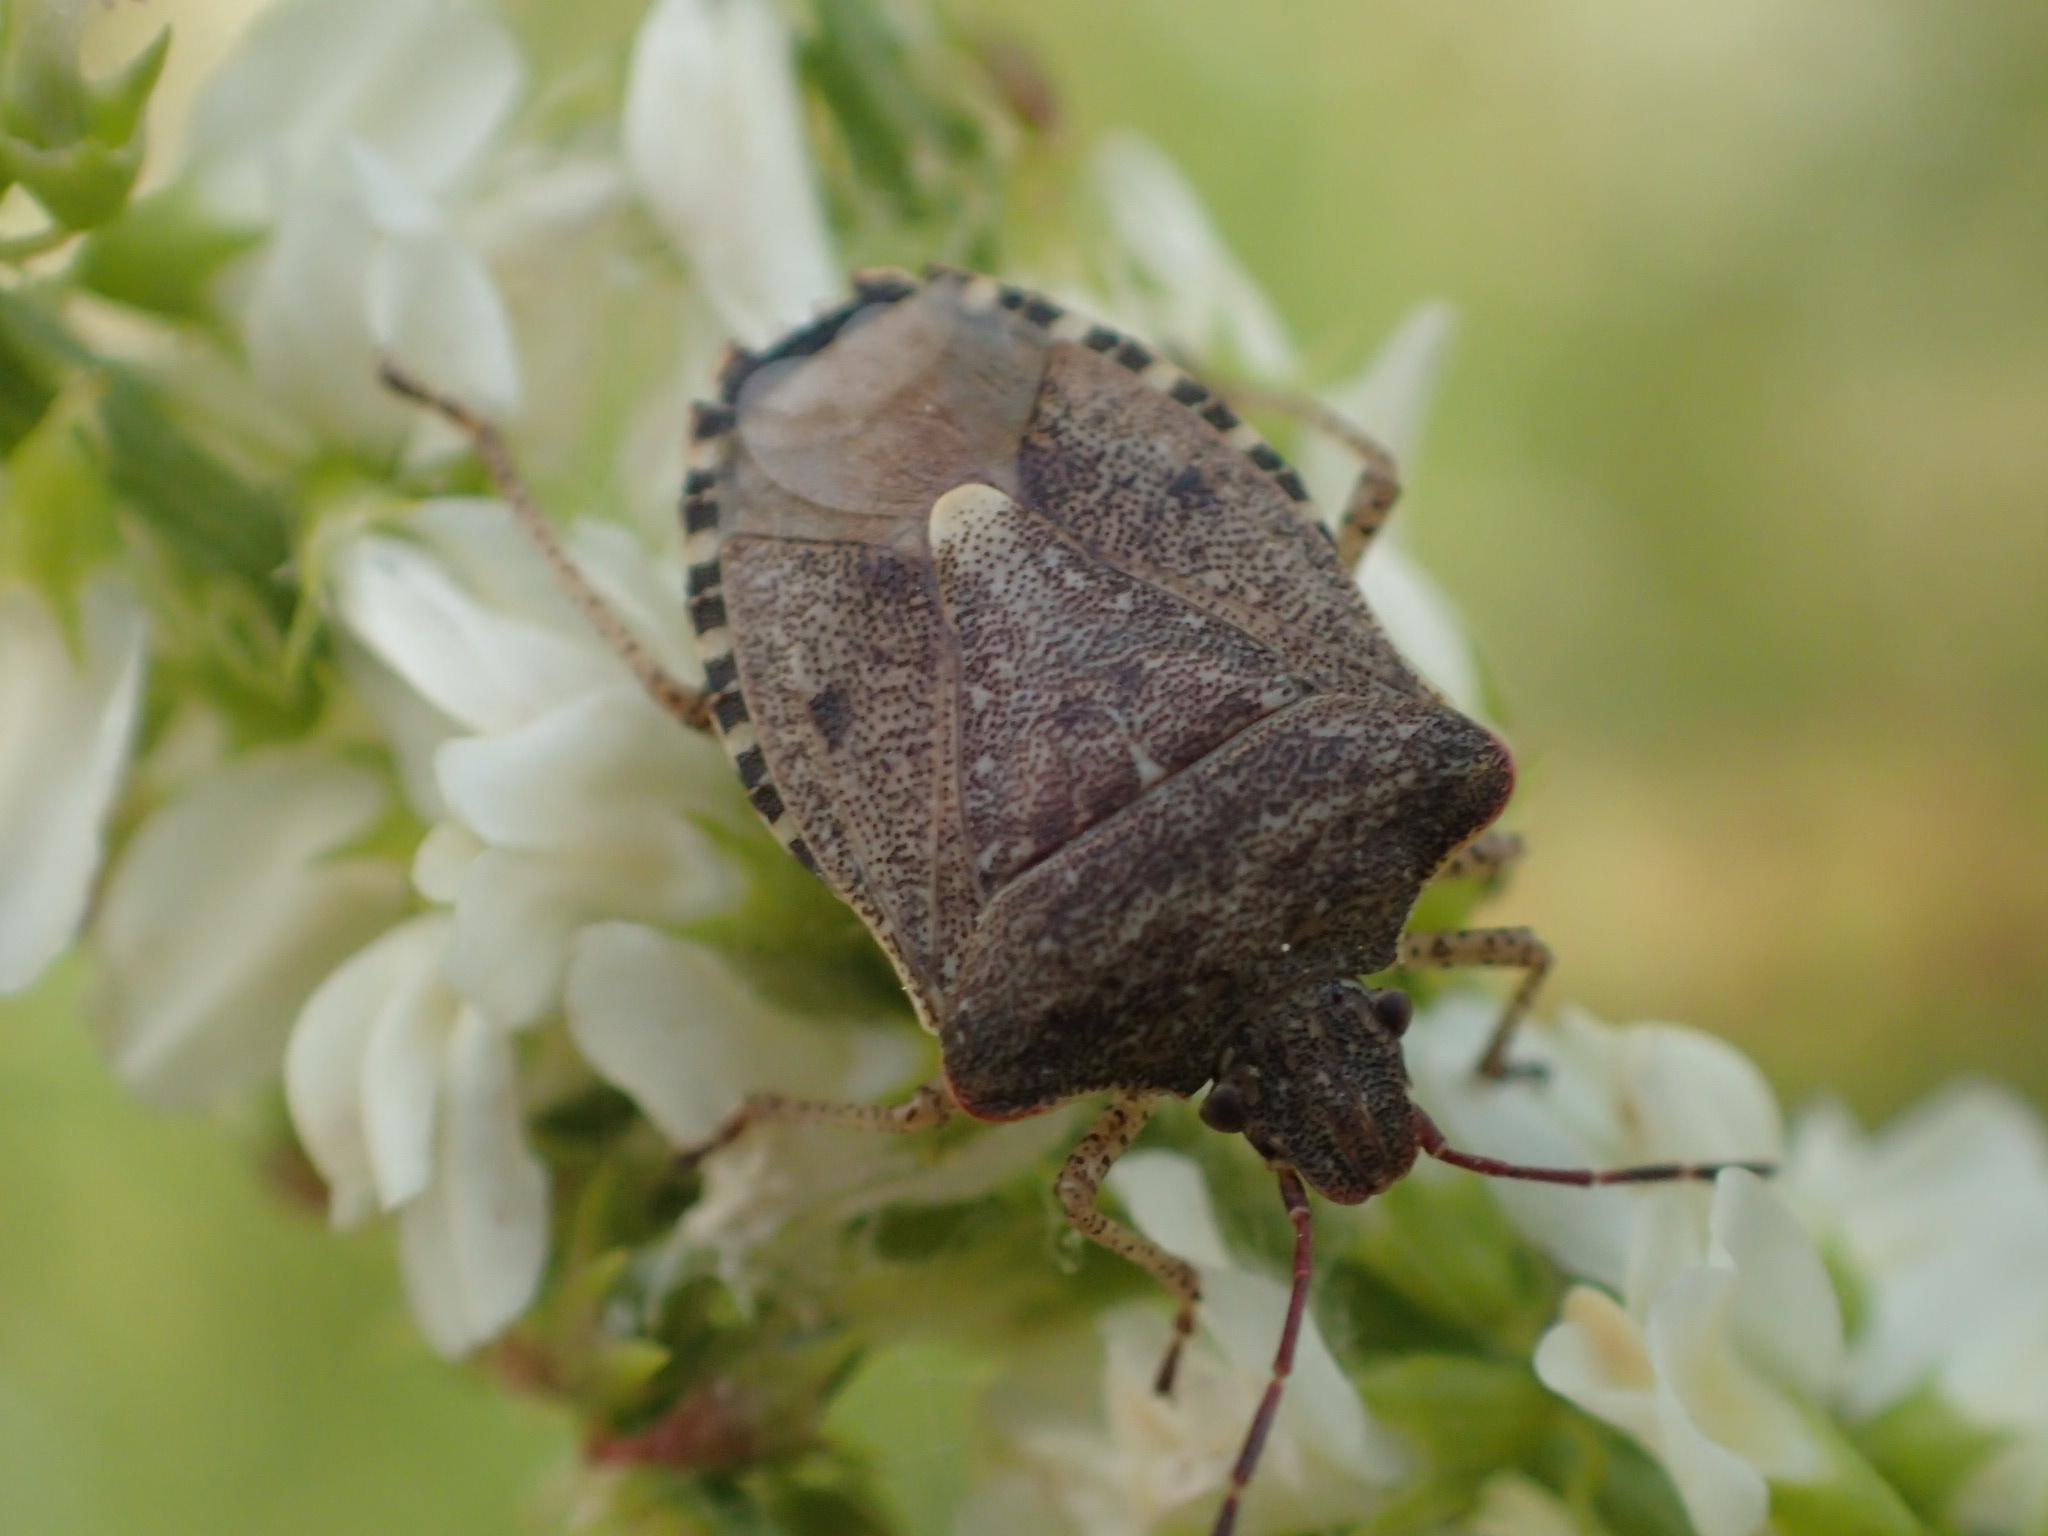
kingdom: Animalia
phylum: Arthropoda
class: Insecta
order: Hemiptera
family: Pentatomidae
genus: Euschistus
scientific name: Euschistus tristigmus
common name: Dusky stink bug
